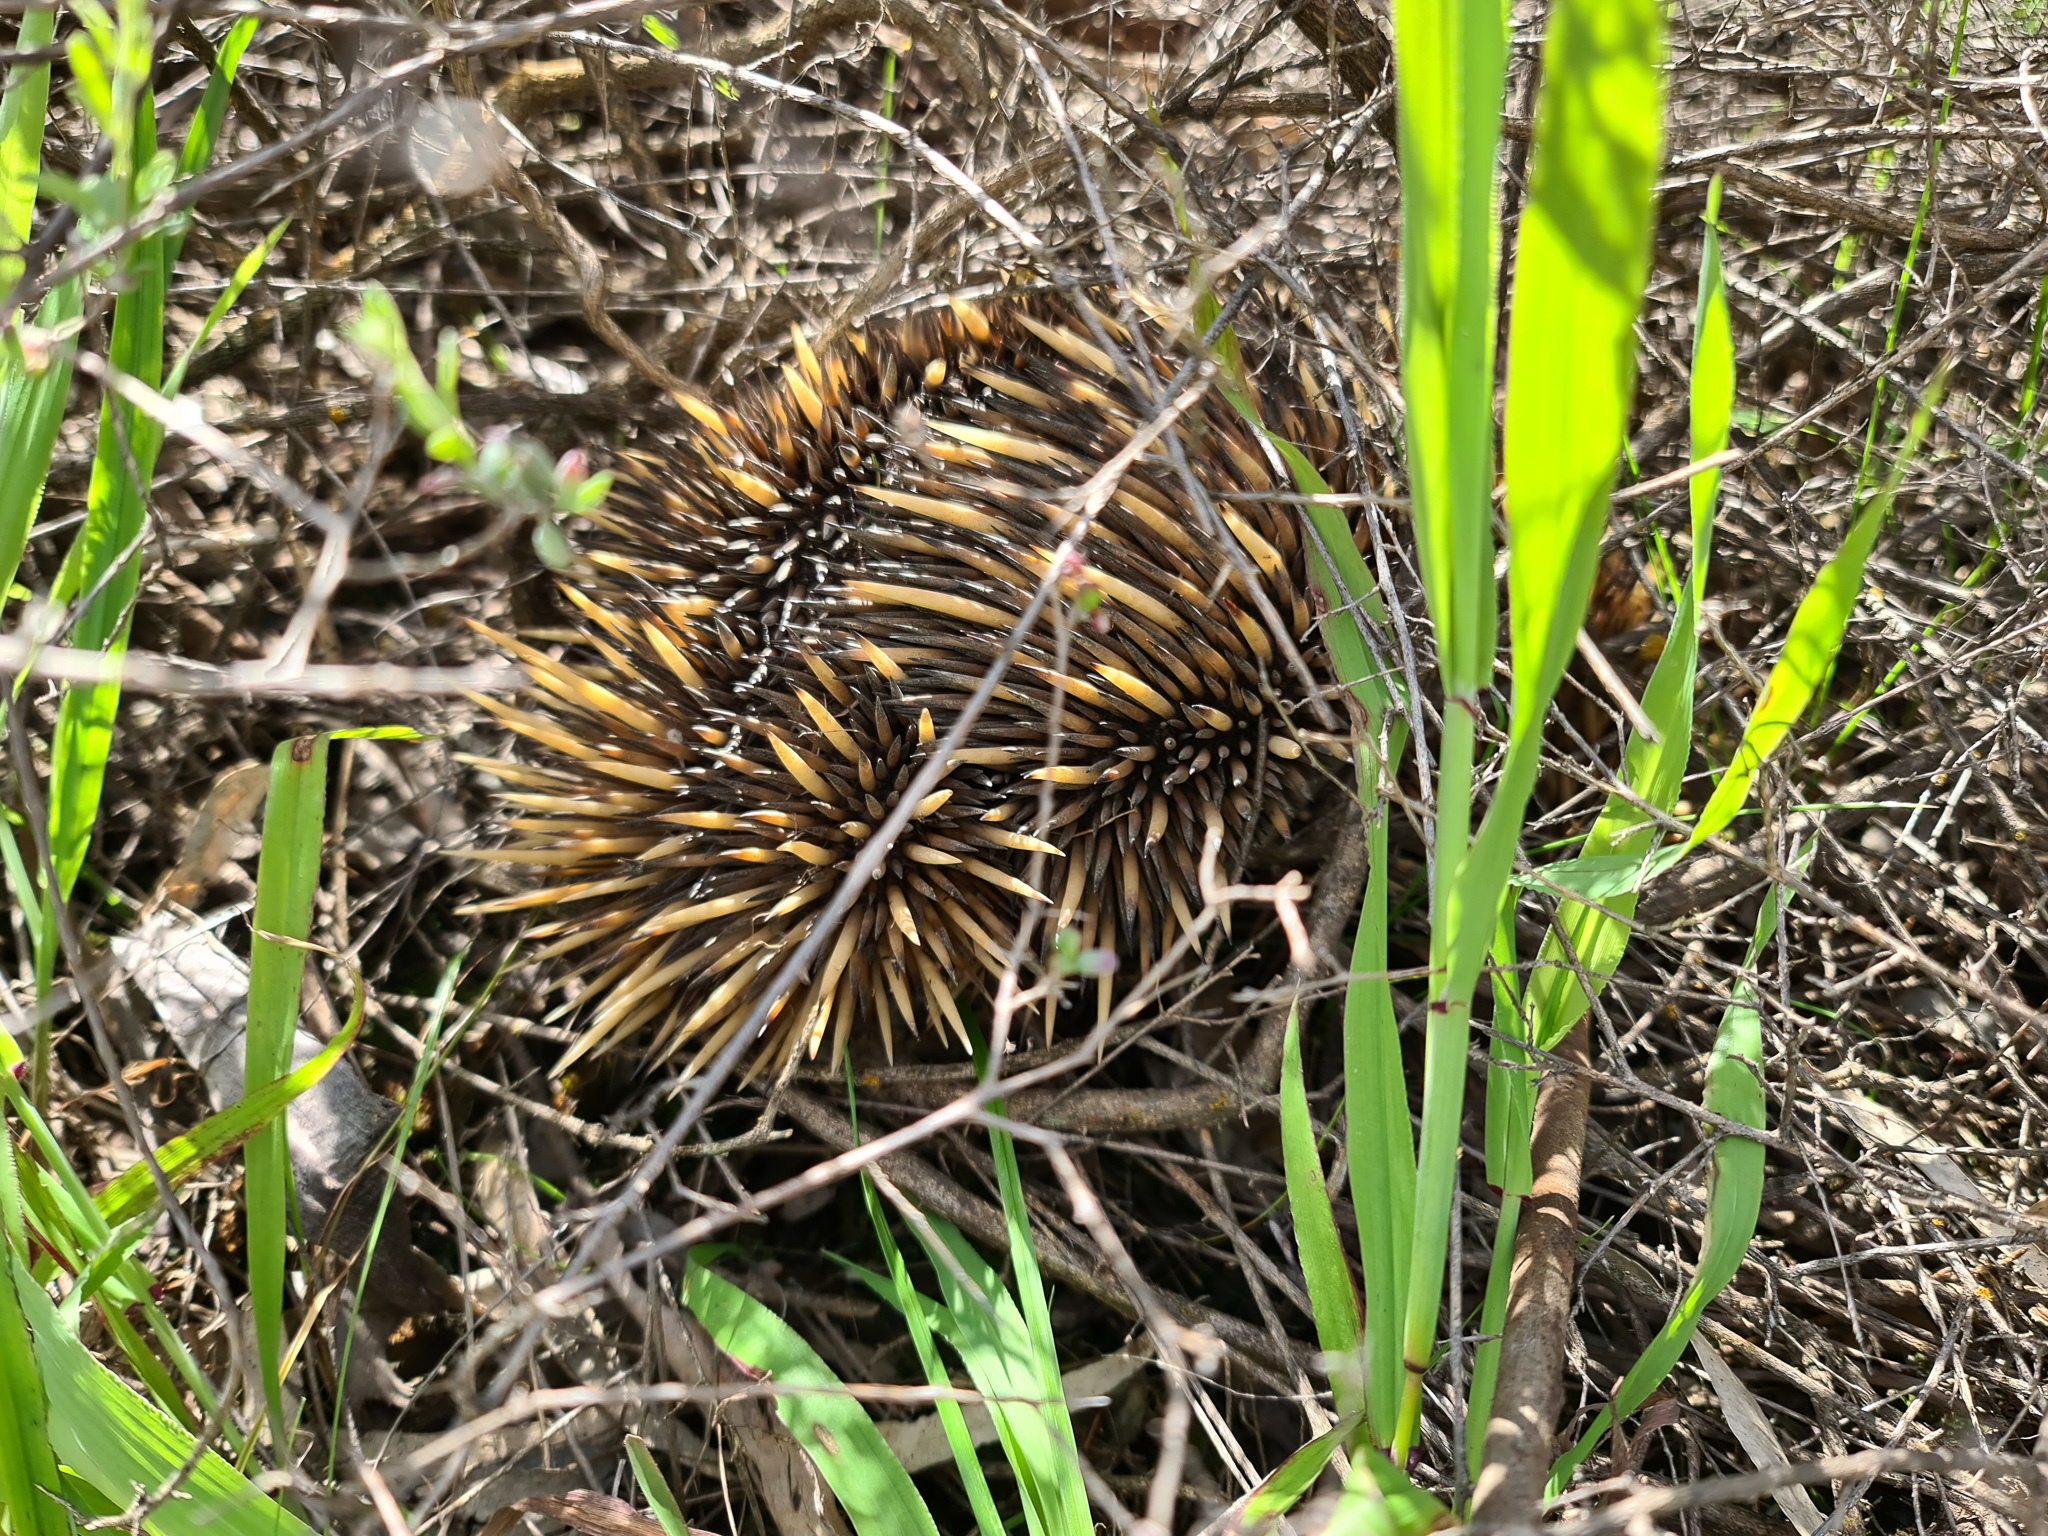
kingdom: Animalia
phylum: Chordata
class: Mammalia
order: Monotremata
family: Tachyglossidae
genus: Tachyglossus
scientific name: Tachyglossus aculeatus
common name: Short-beaked echidna
